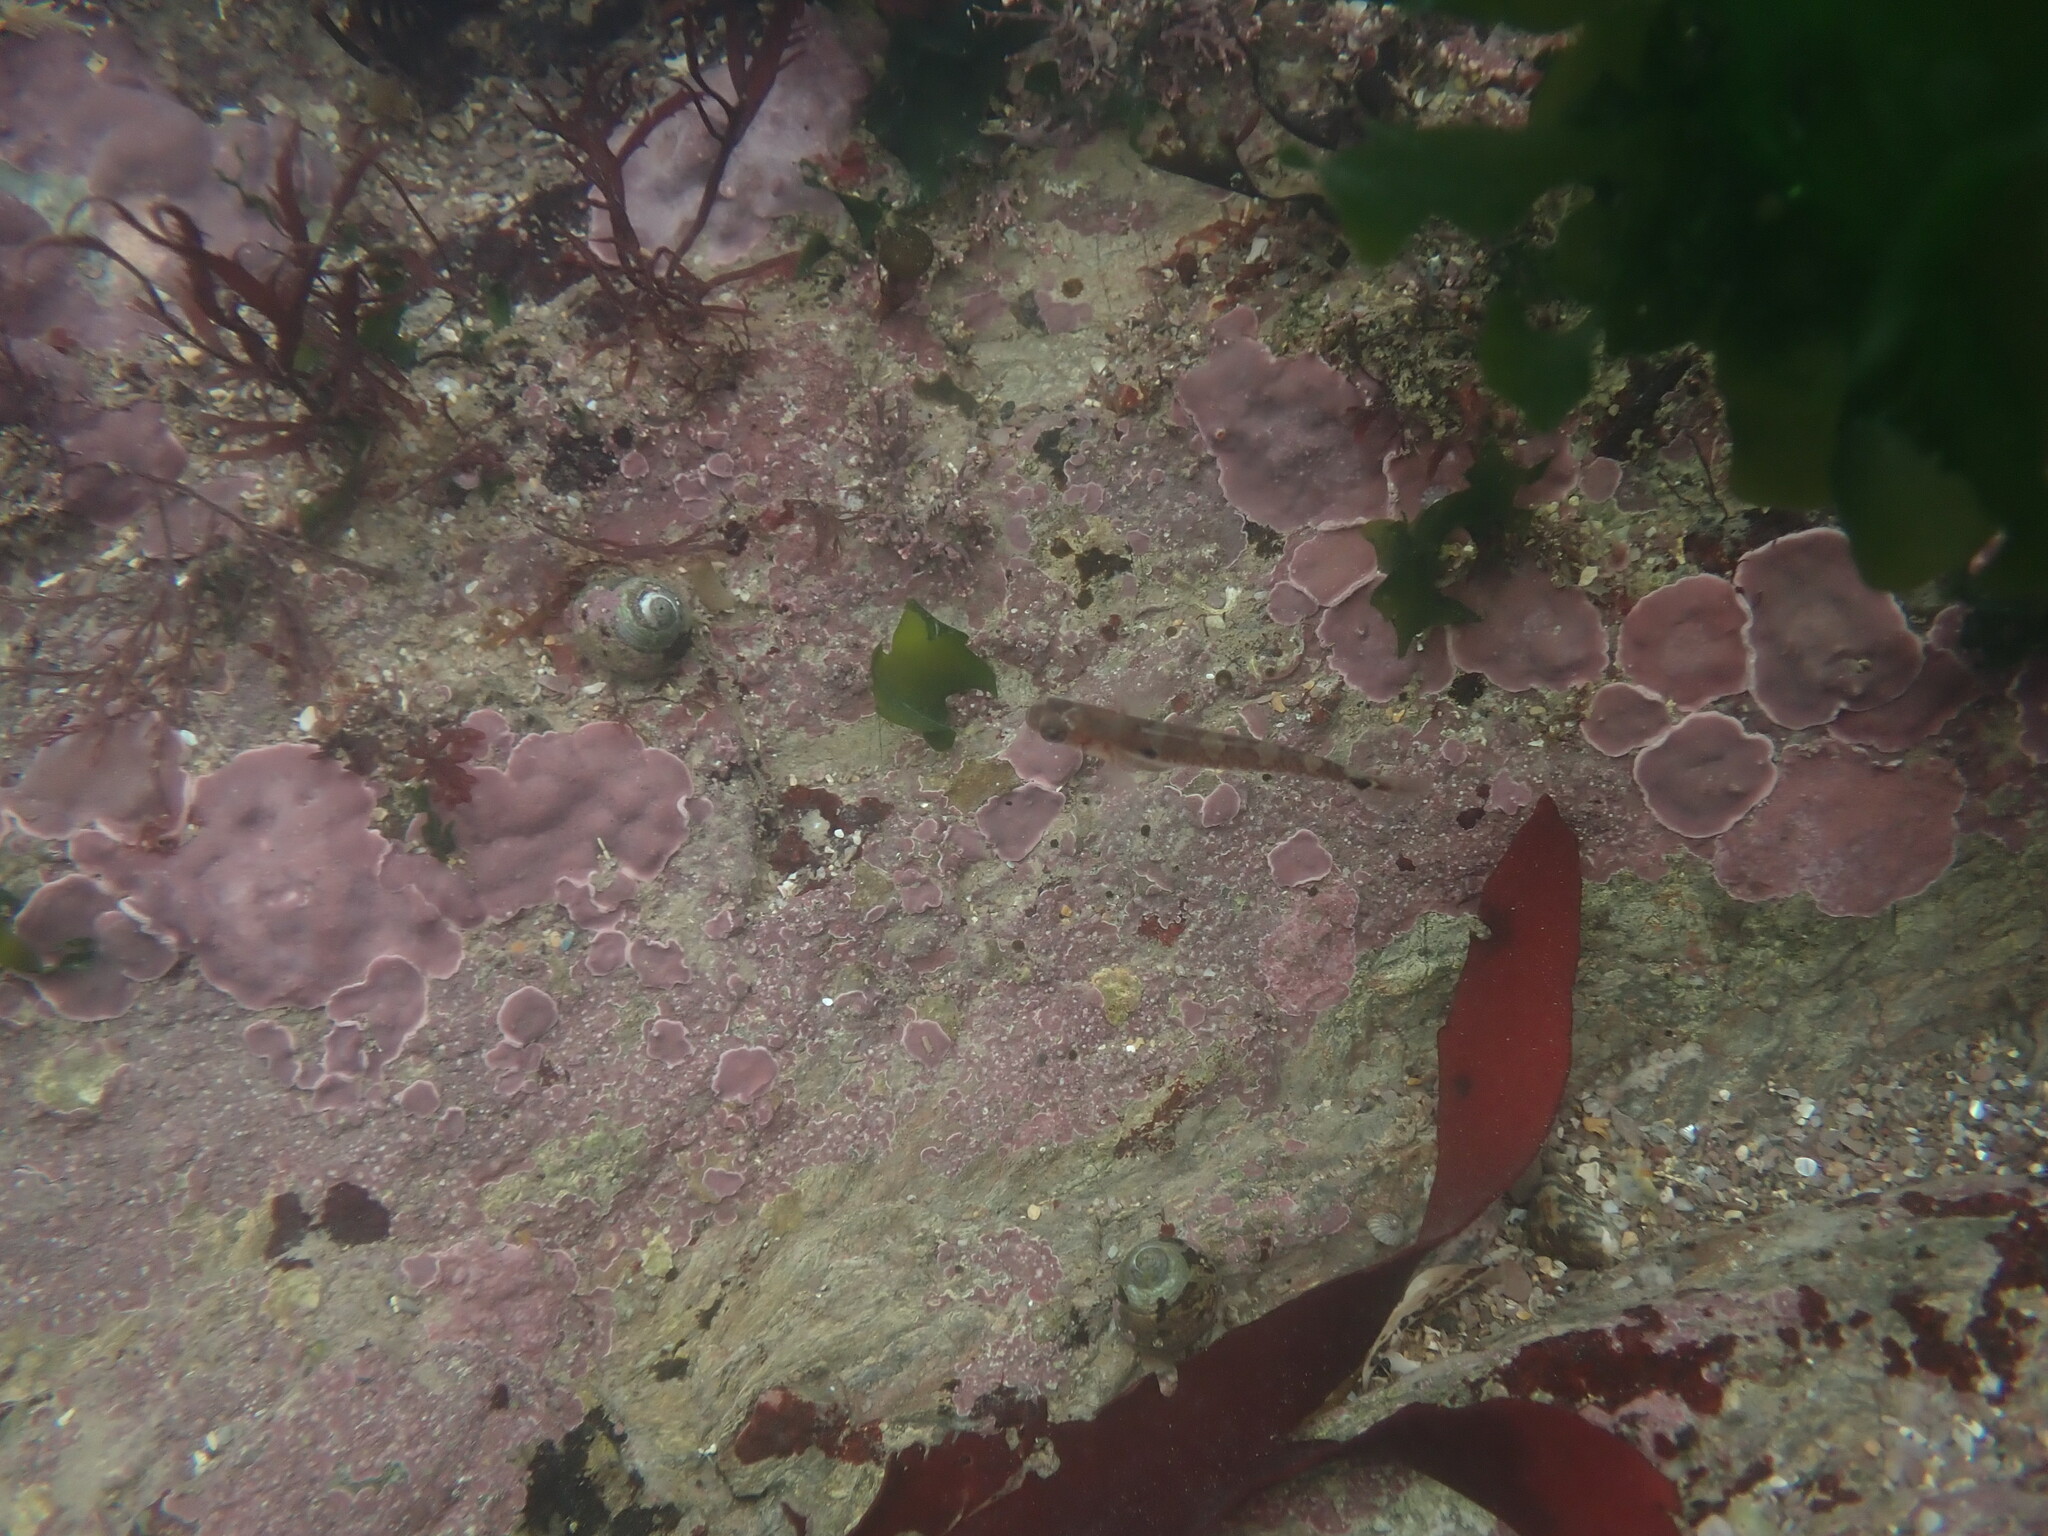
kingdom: Animalia
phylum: Chordata
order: Perciformes
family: Gobiidae
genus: Gobiusculus
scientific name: Gobiusculus flavescens
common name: Two-spotted goby
